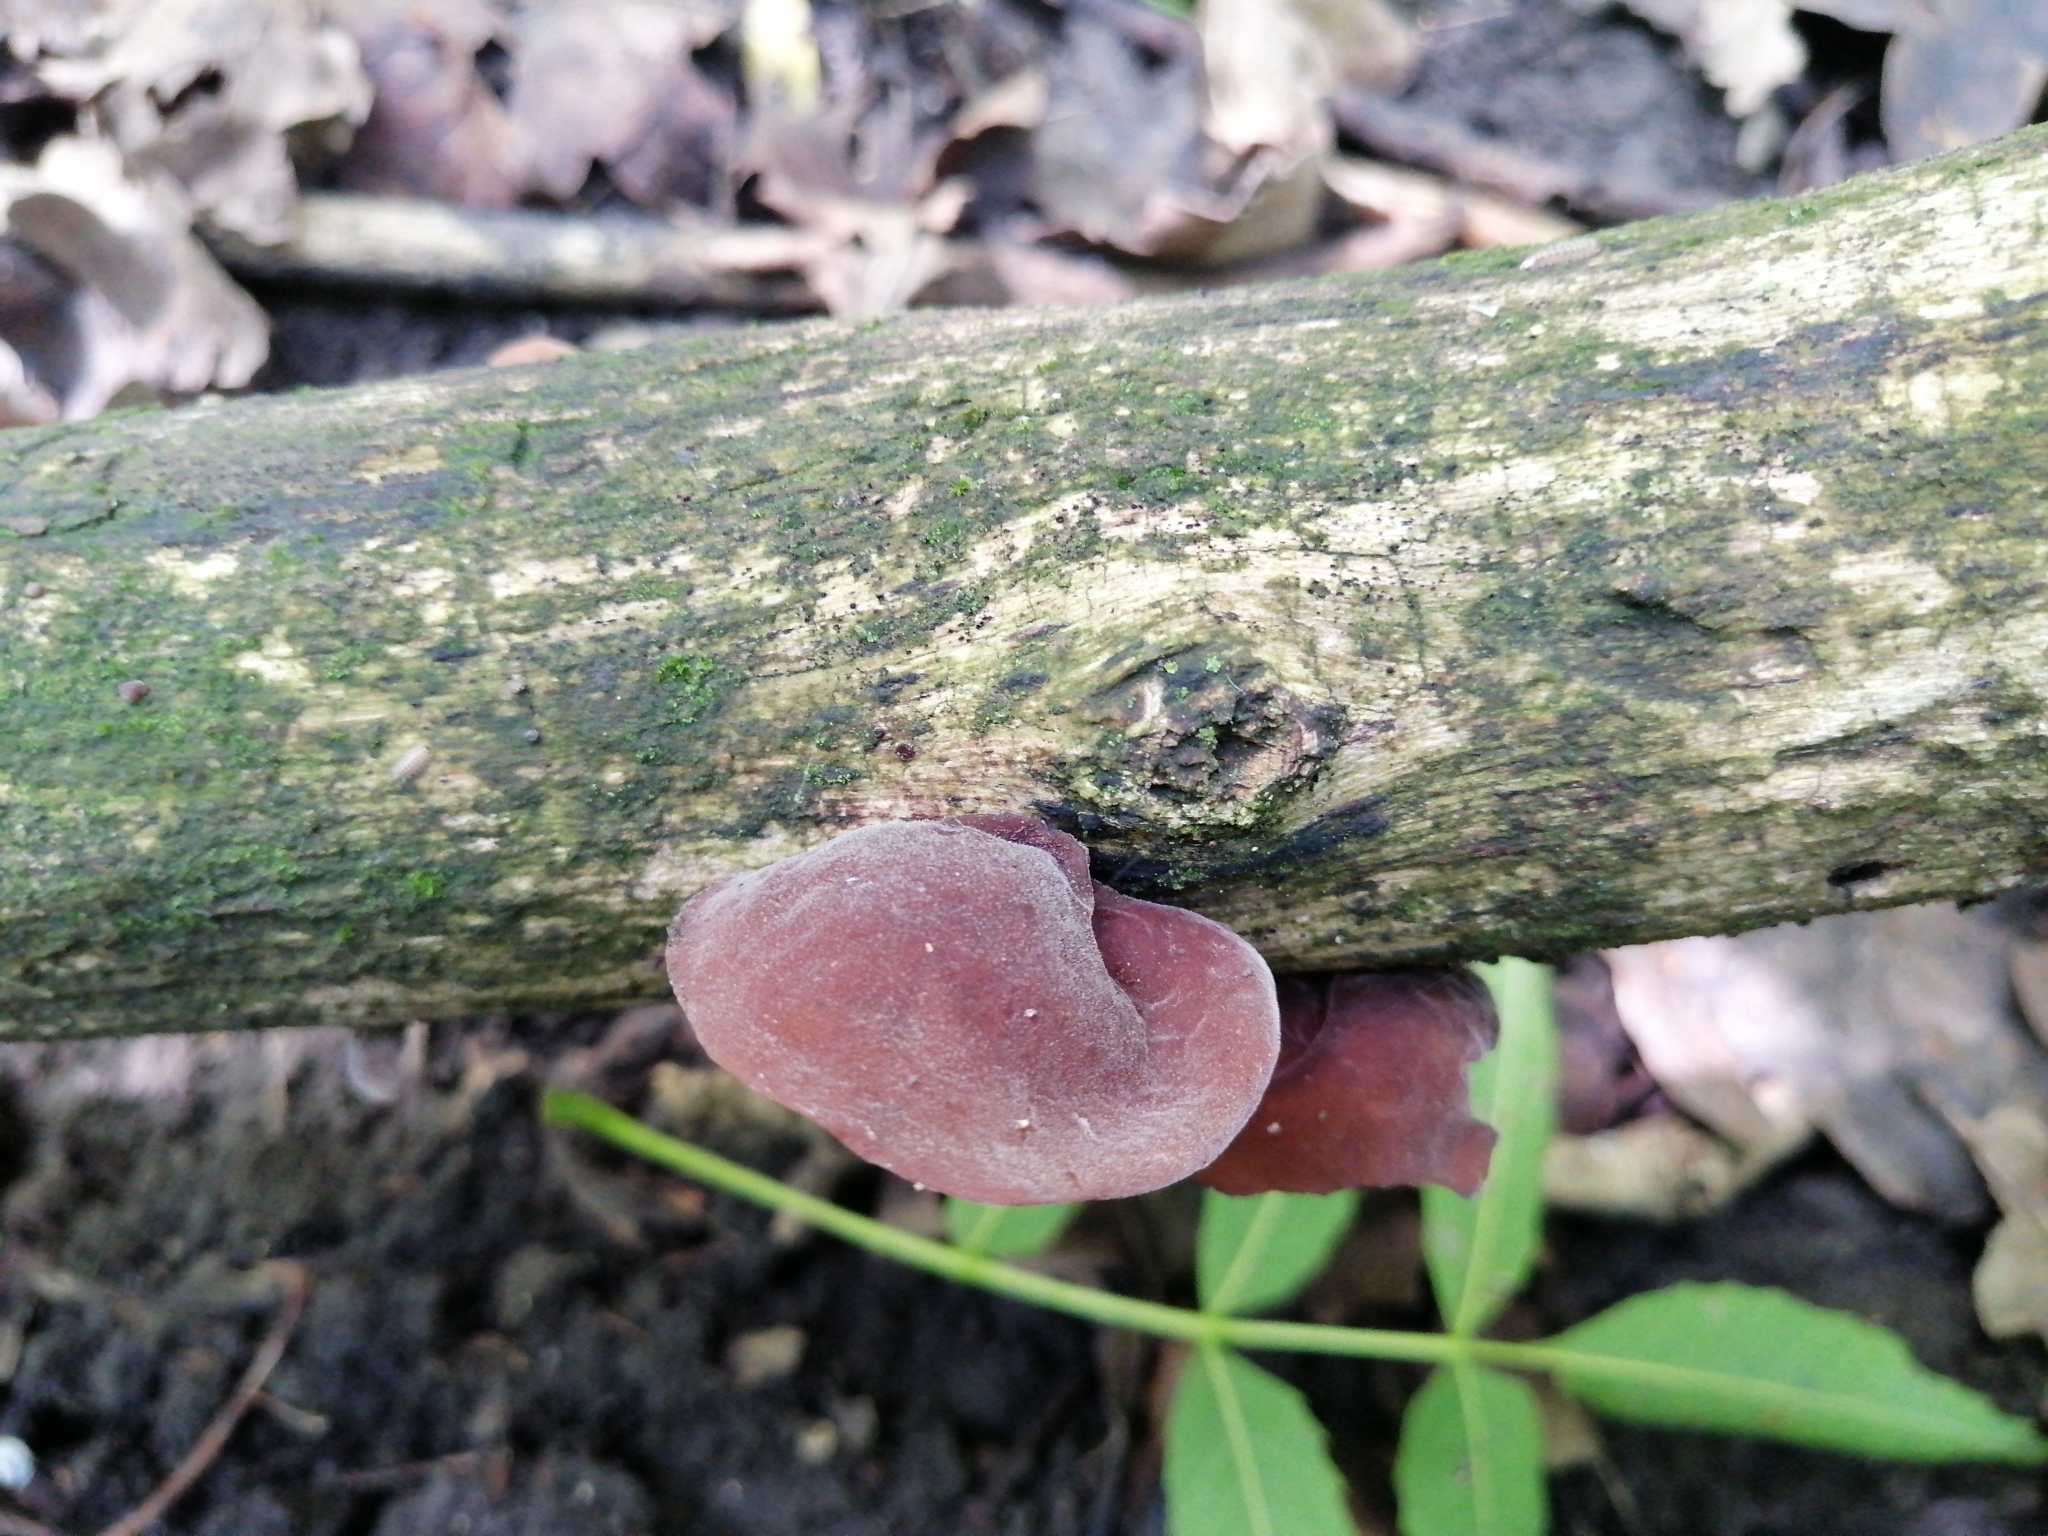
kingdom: Fungi
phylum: Basidiomycota
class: Agaricomycetes
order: Auriculariales
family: Auriculariaceae
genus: Auricularia
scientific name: Auricularia auricula-judae
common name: Jelly ear
